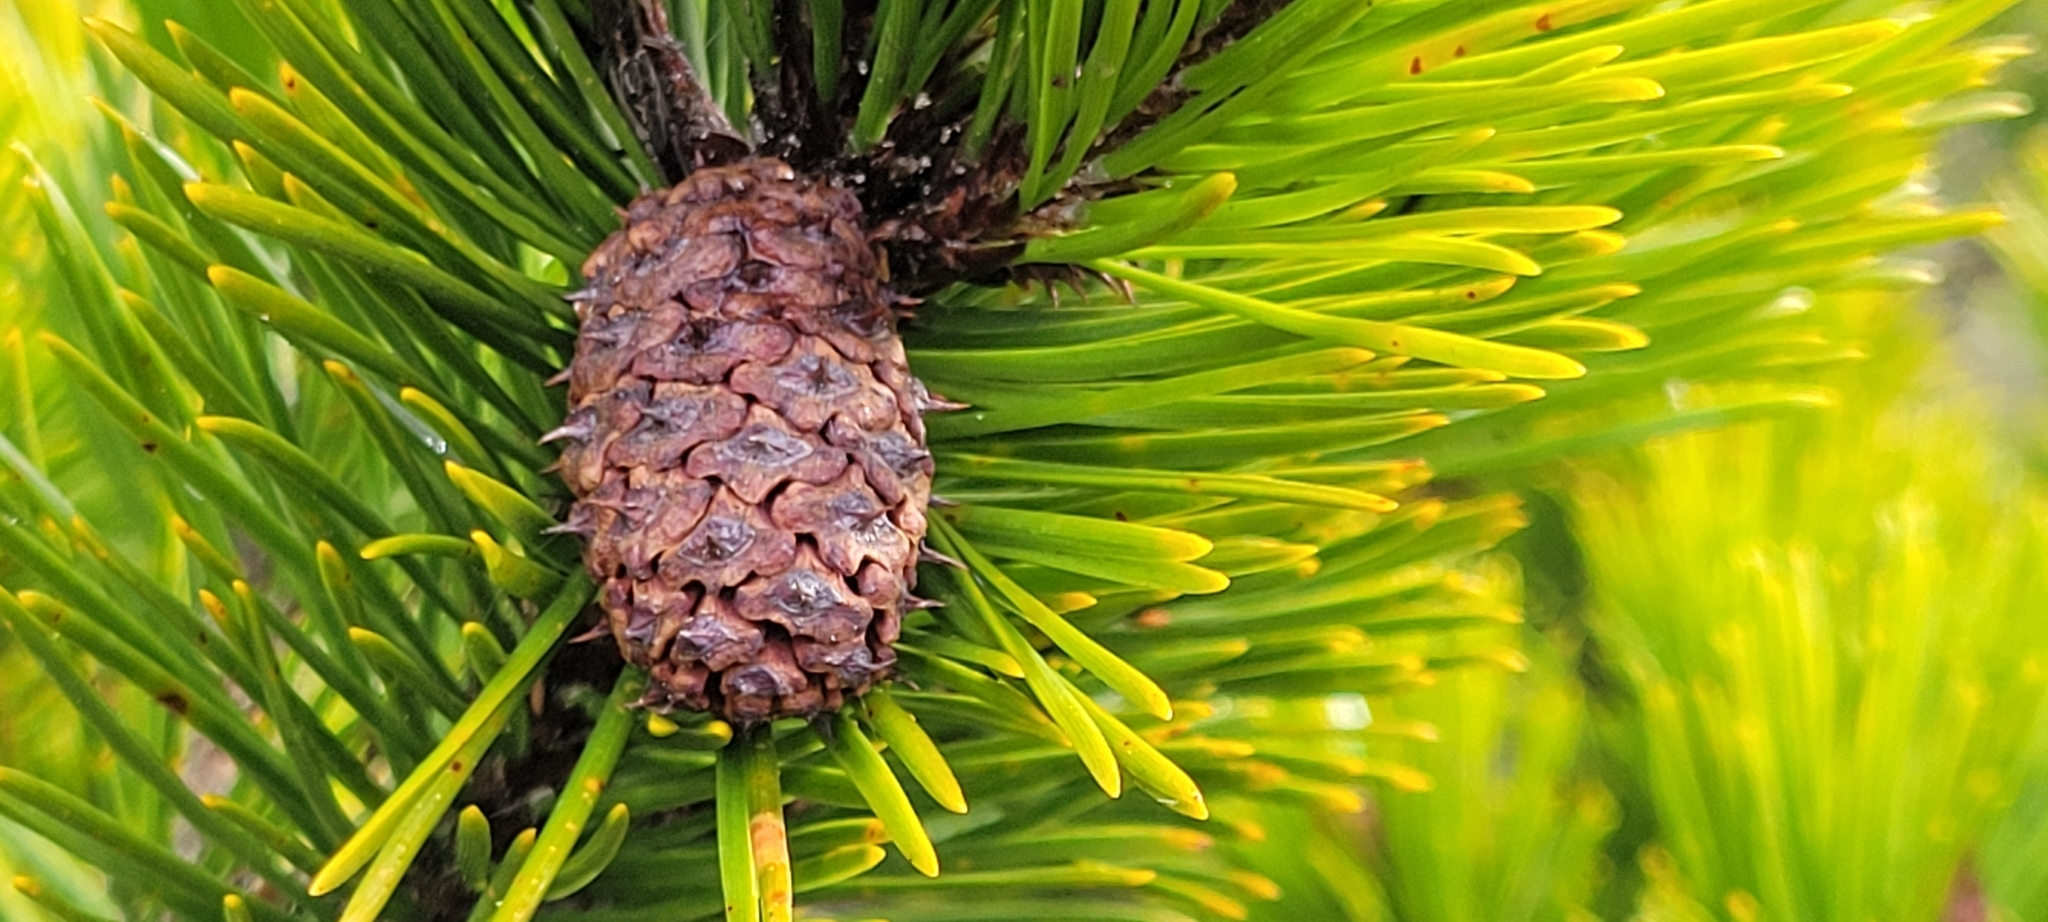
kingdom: Plantae
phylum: Tracheophyta
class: Pinopsida
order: Pinales
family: Pinaceae
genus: Pinus
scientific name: Pinus contorta
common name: Lodgepole pine
